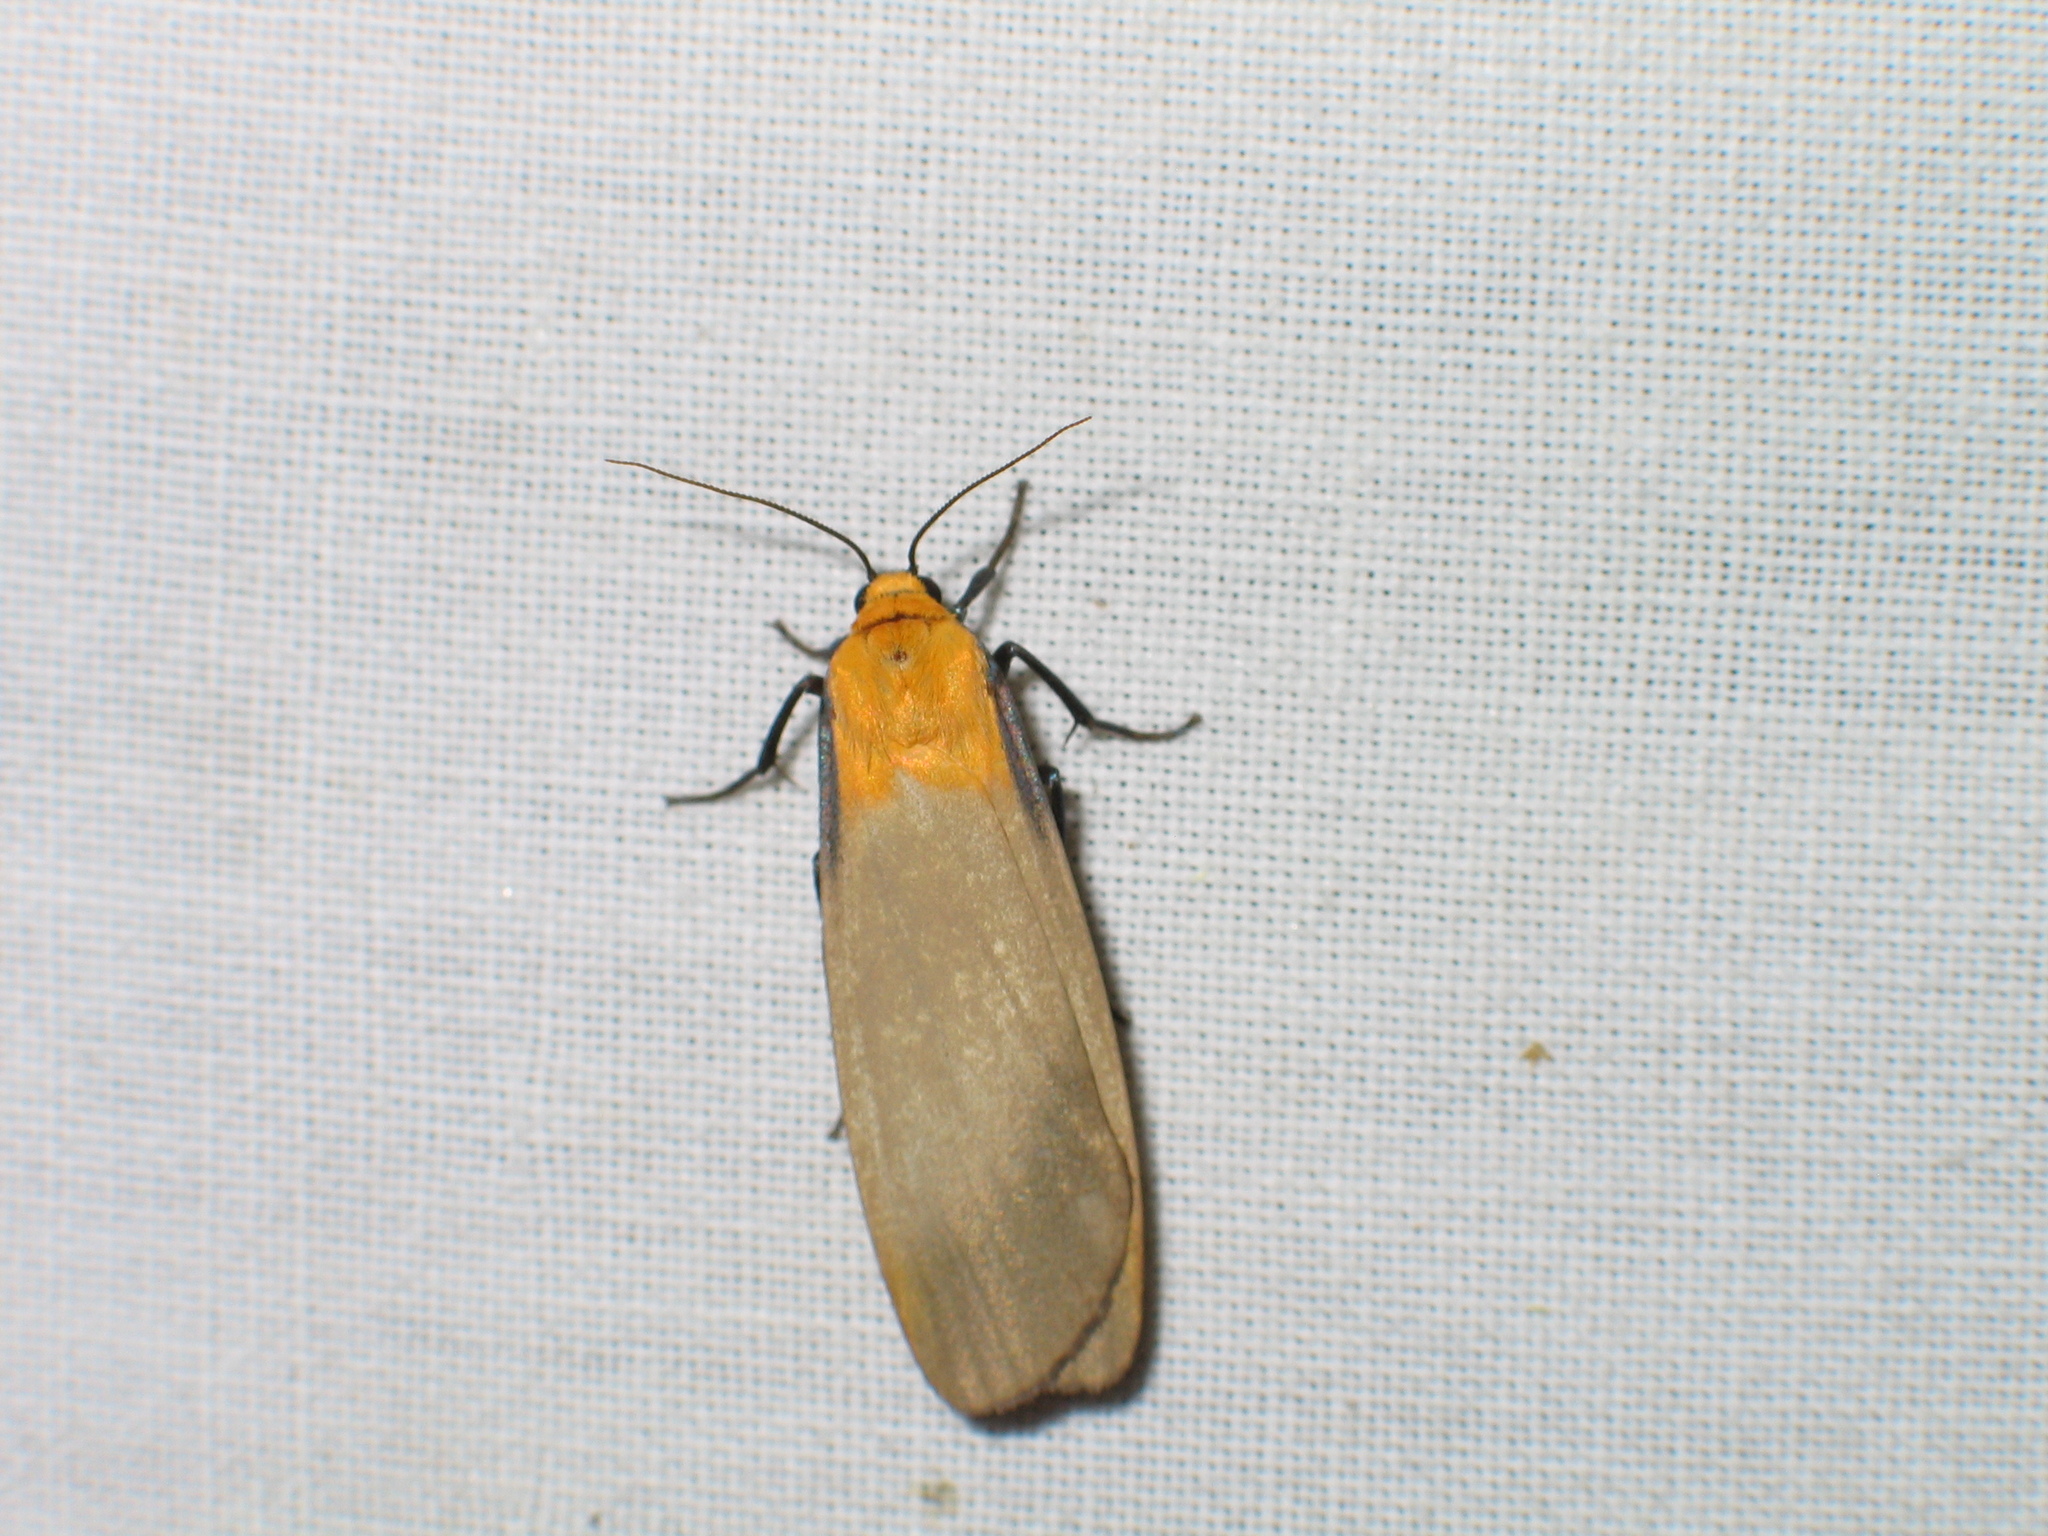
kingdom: Animalia
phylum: Arthropoda
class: Insecta
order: Lepidoptera
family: Erebidae
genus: Lithosia
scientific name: Lithosia quadra
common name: Four-spotted footman
